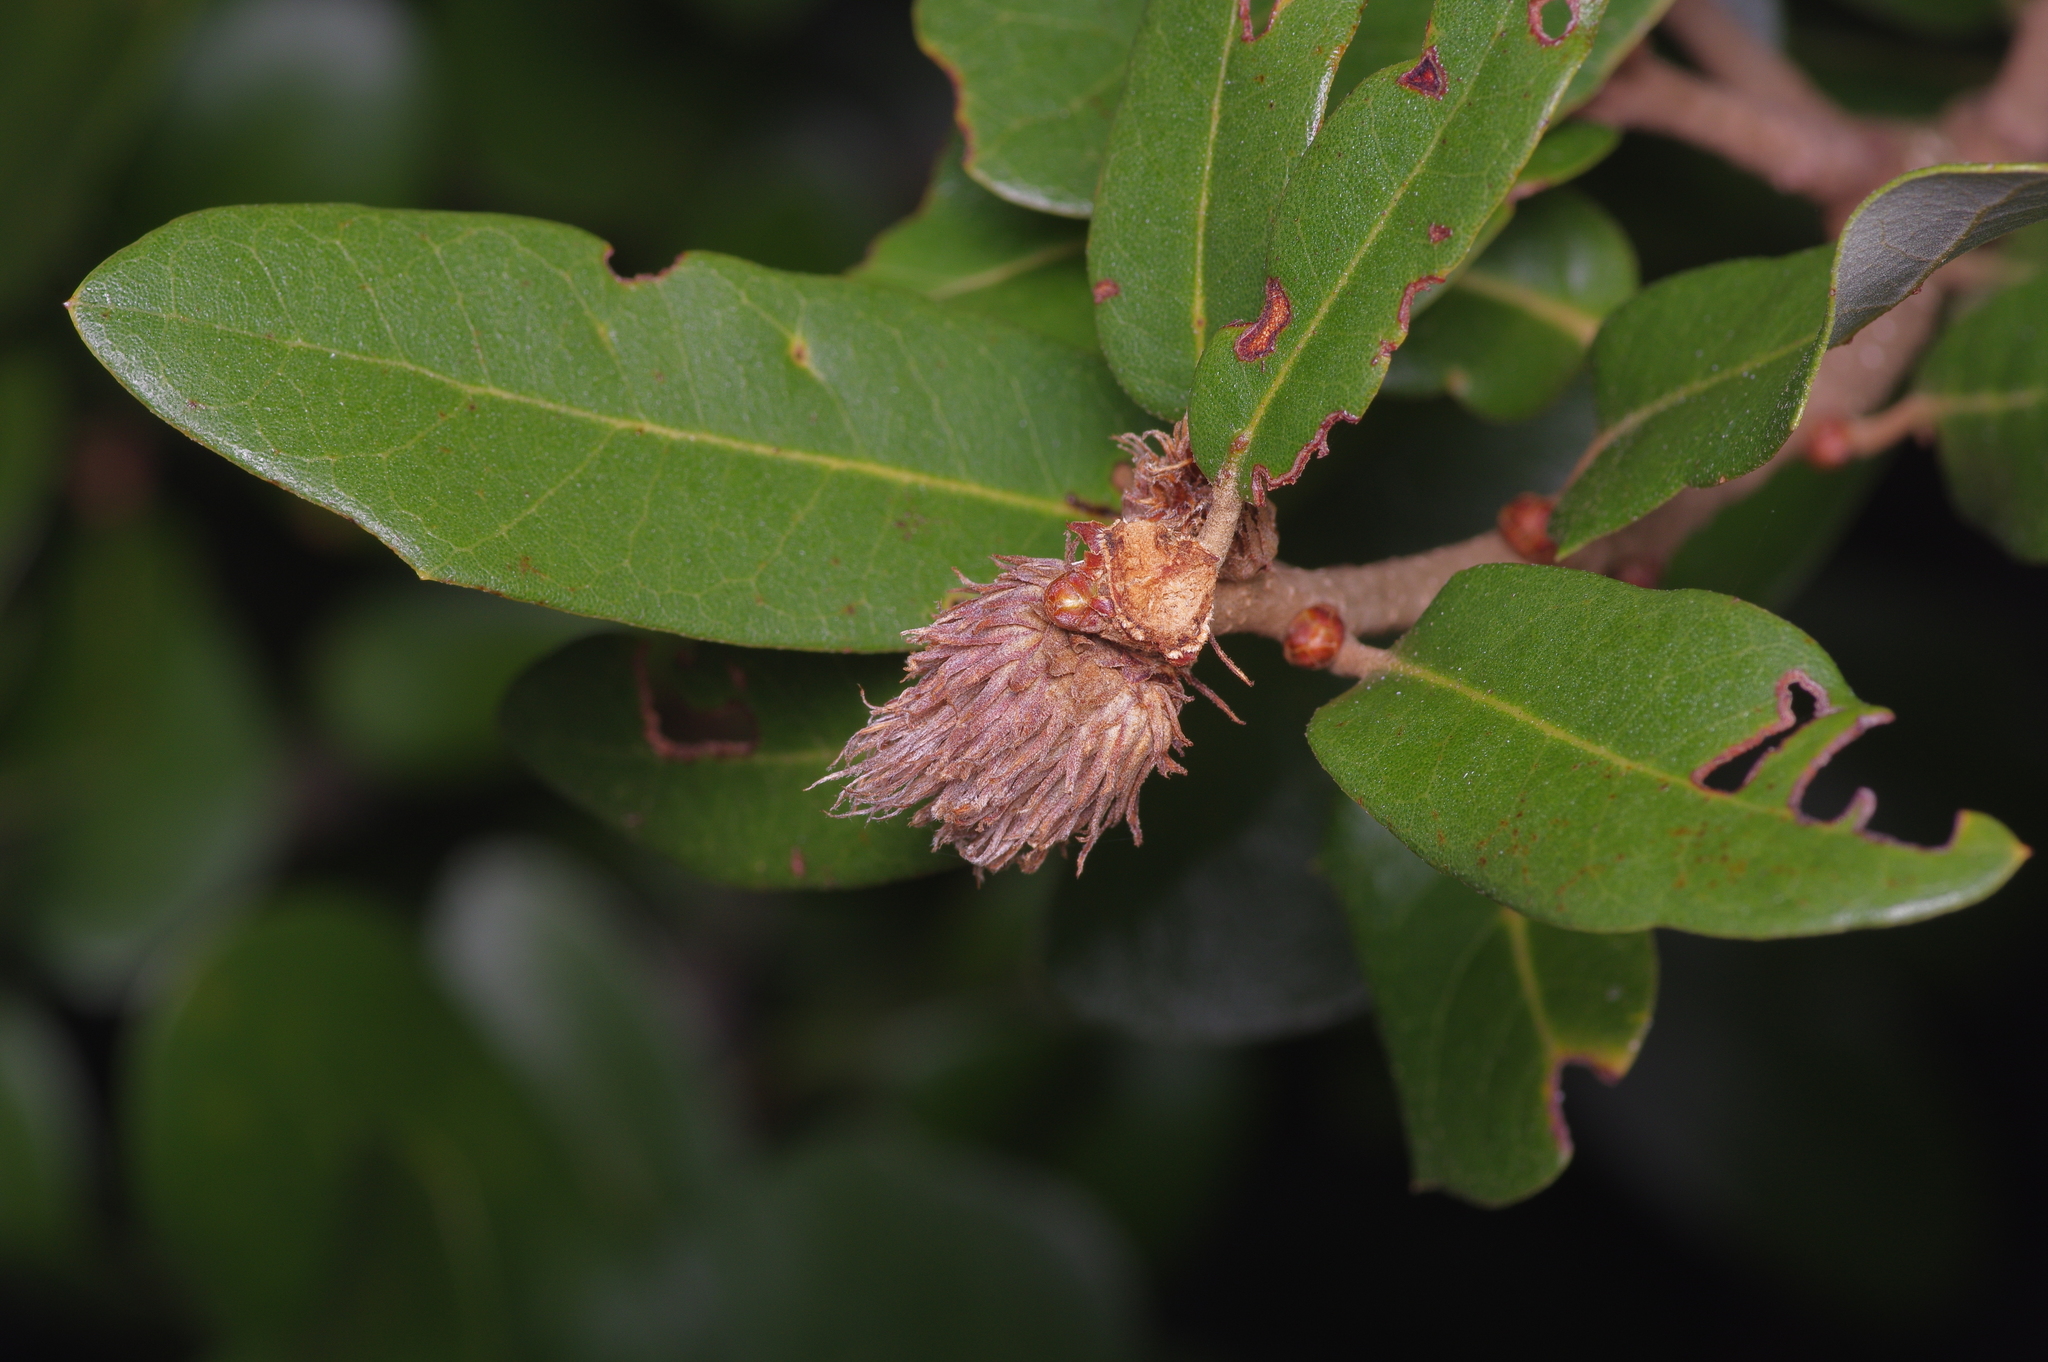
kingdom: Animalia
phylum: Arthropoda
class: Insecta
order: Hymenoptera
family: Cynipidae
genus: Andricus
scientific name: Andricus quercusfoliatus
